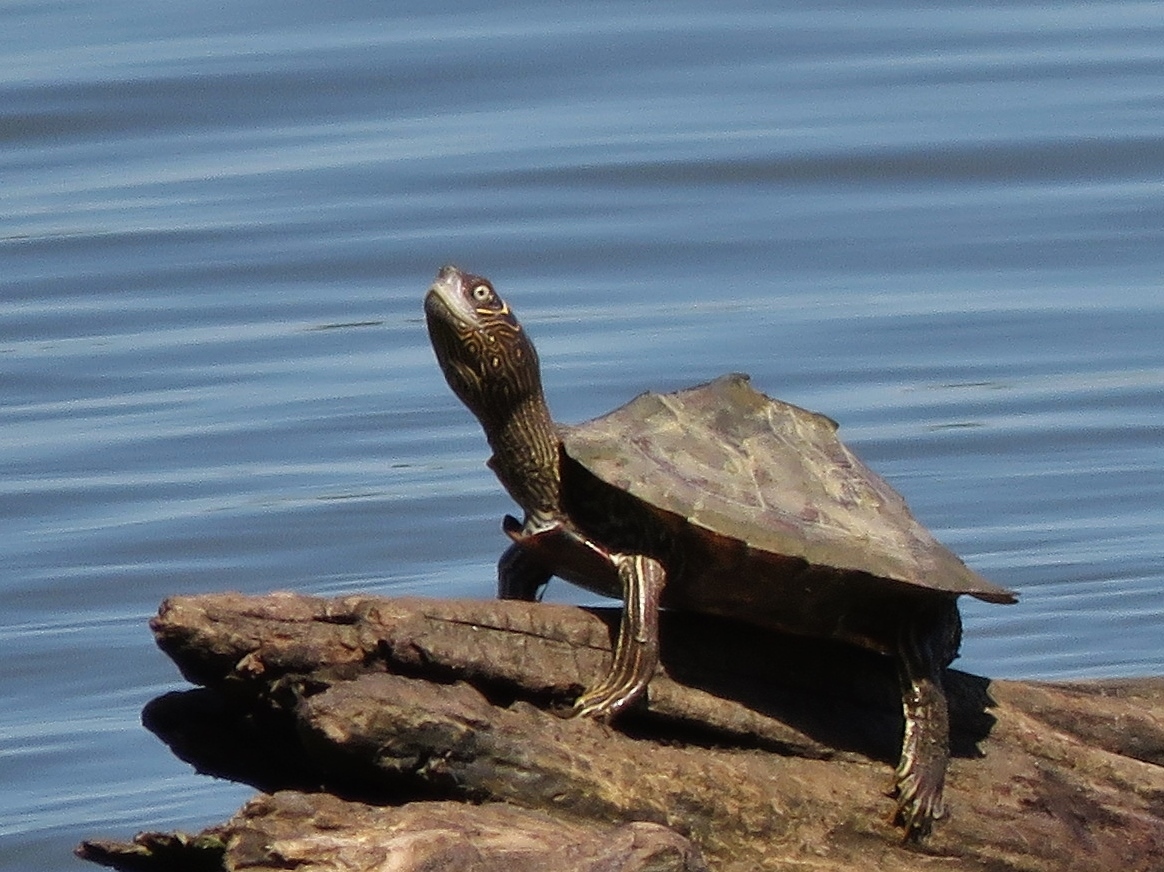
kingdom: Animalia
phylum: Chordata
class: Testudines
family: Emydidae
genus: Graptemys
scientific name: Graptemys pseudogeographica
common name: False map turtle
